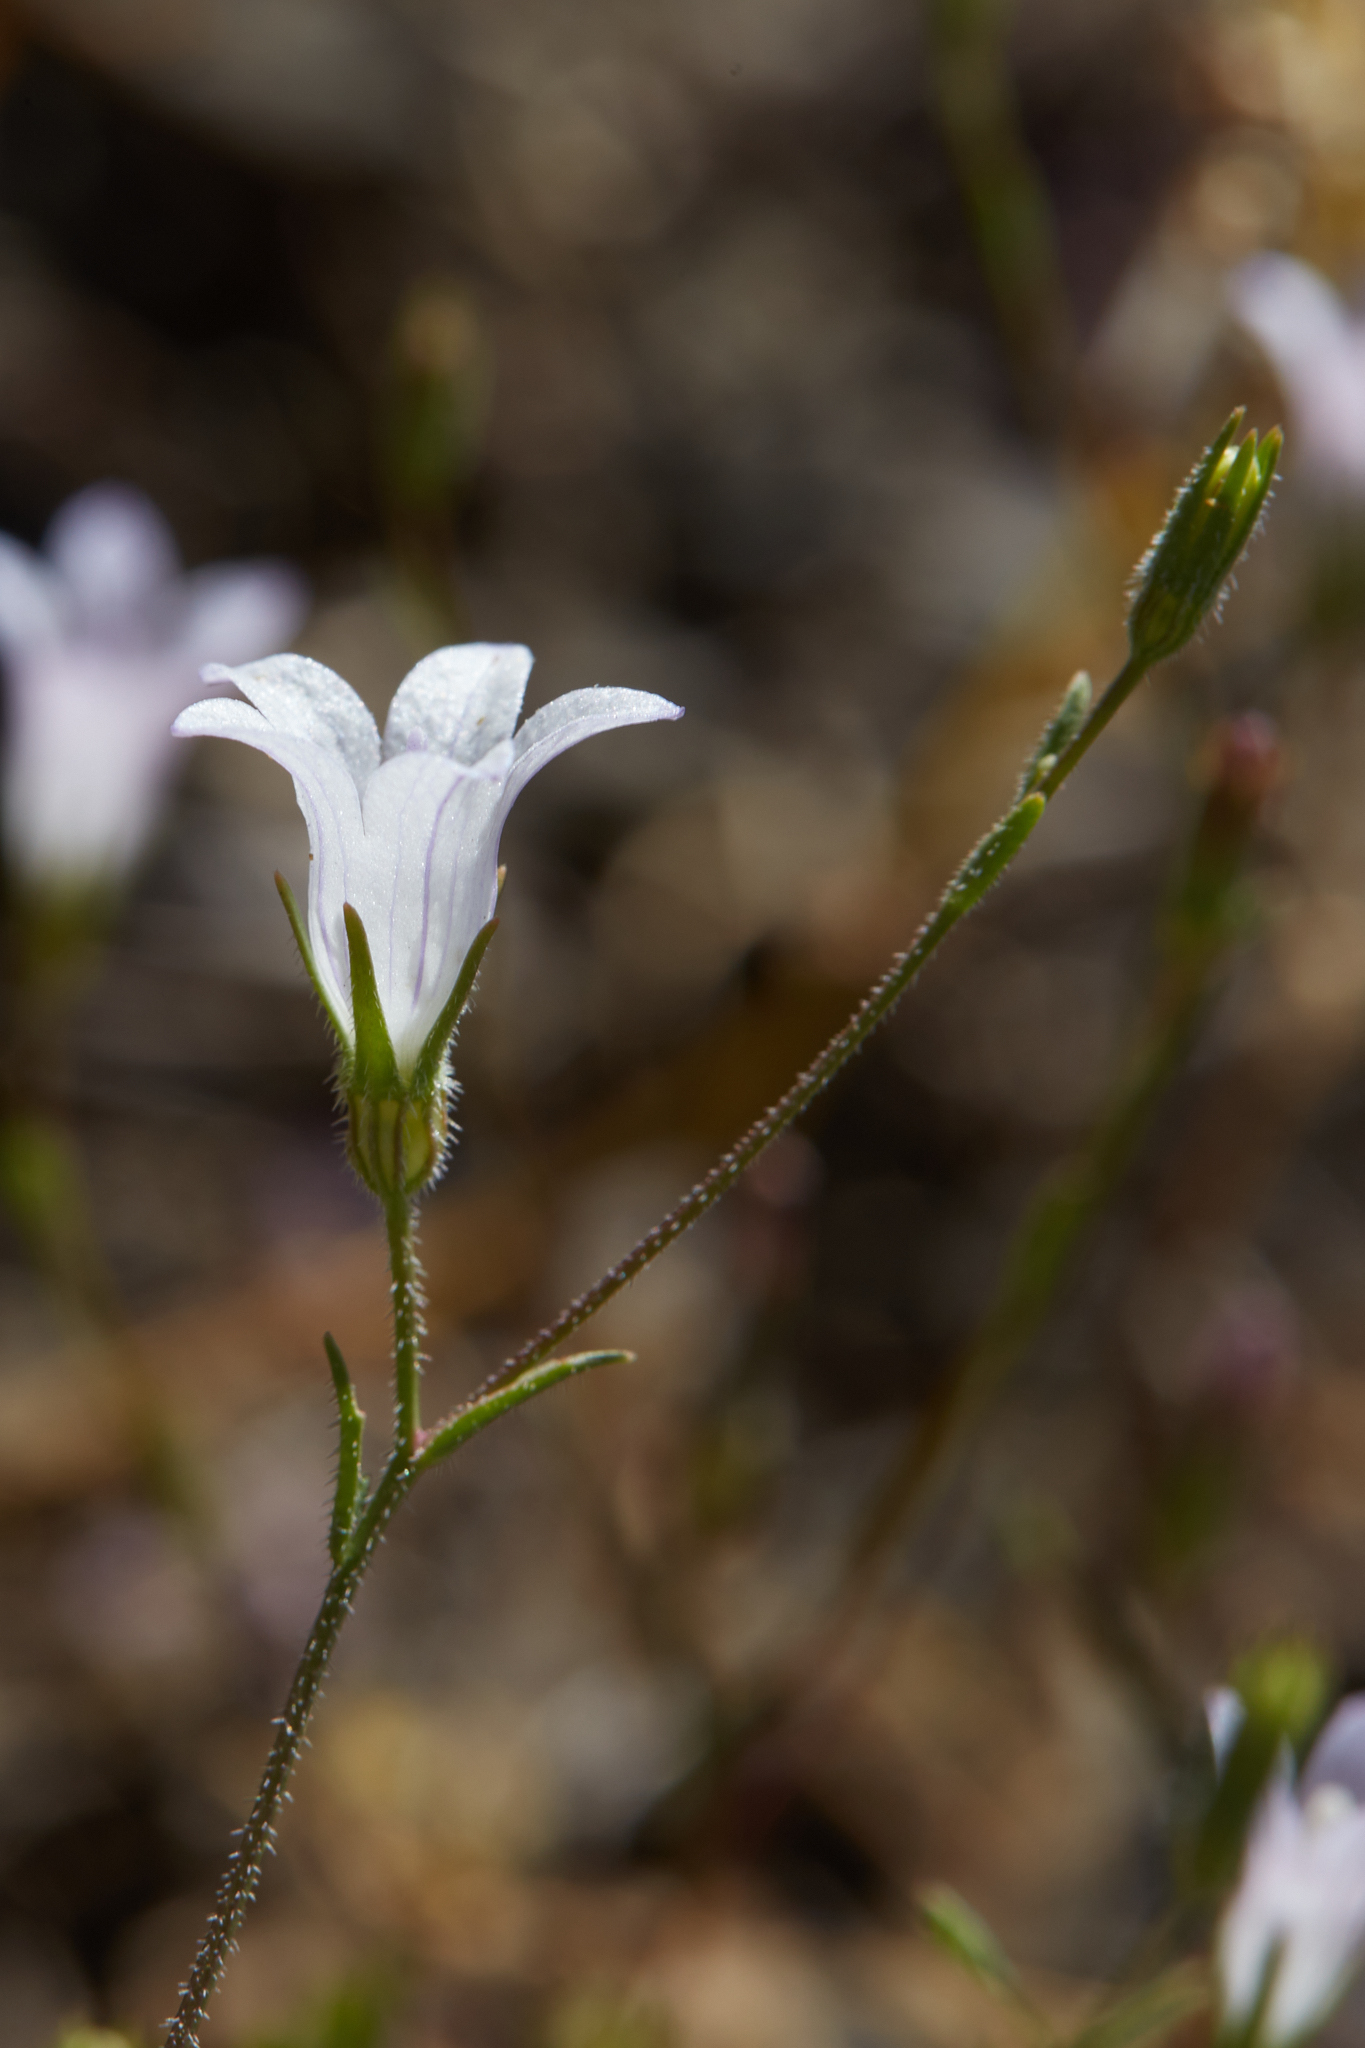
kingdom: Plantae
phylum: Tracheophyta
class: Magnoliopsida
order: Asterales
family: Campanulaceae
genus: Ravenella
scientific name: Ravenella exigua
